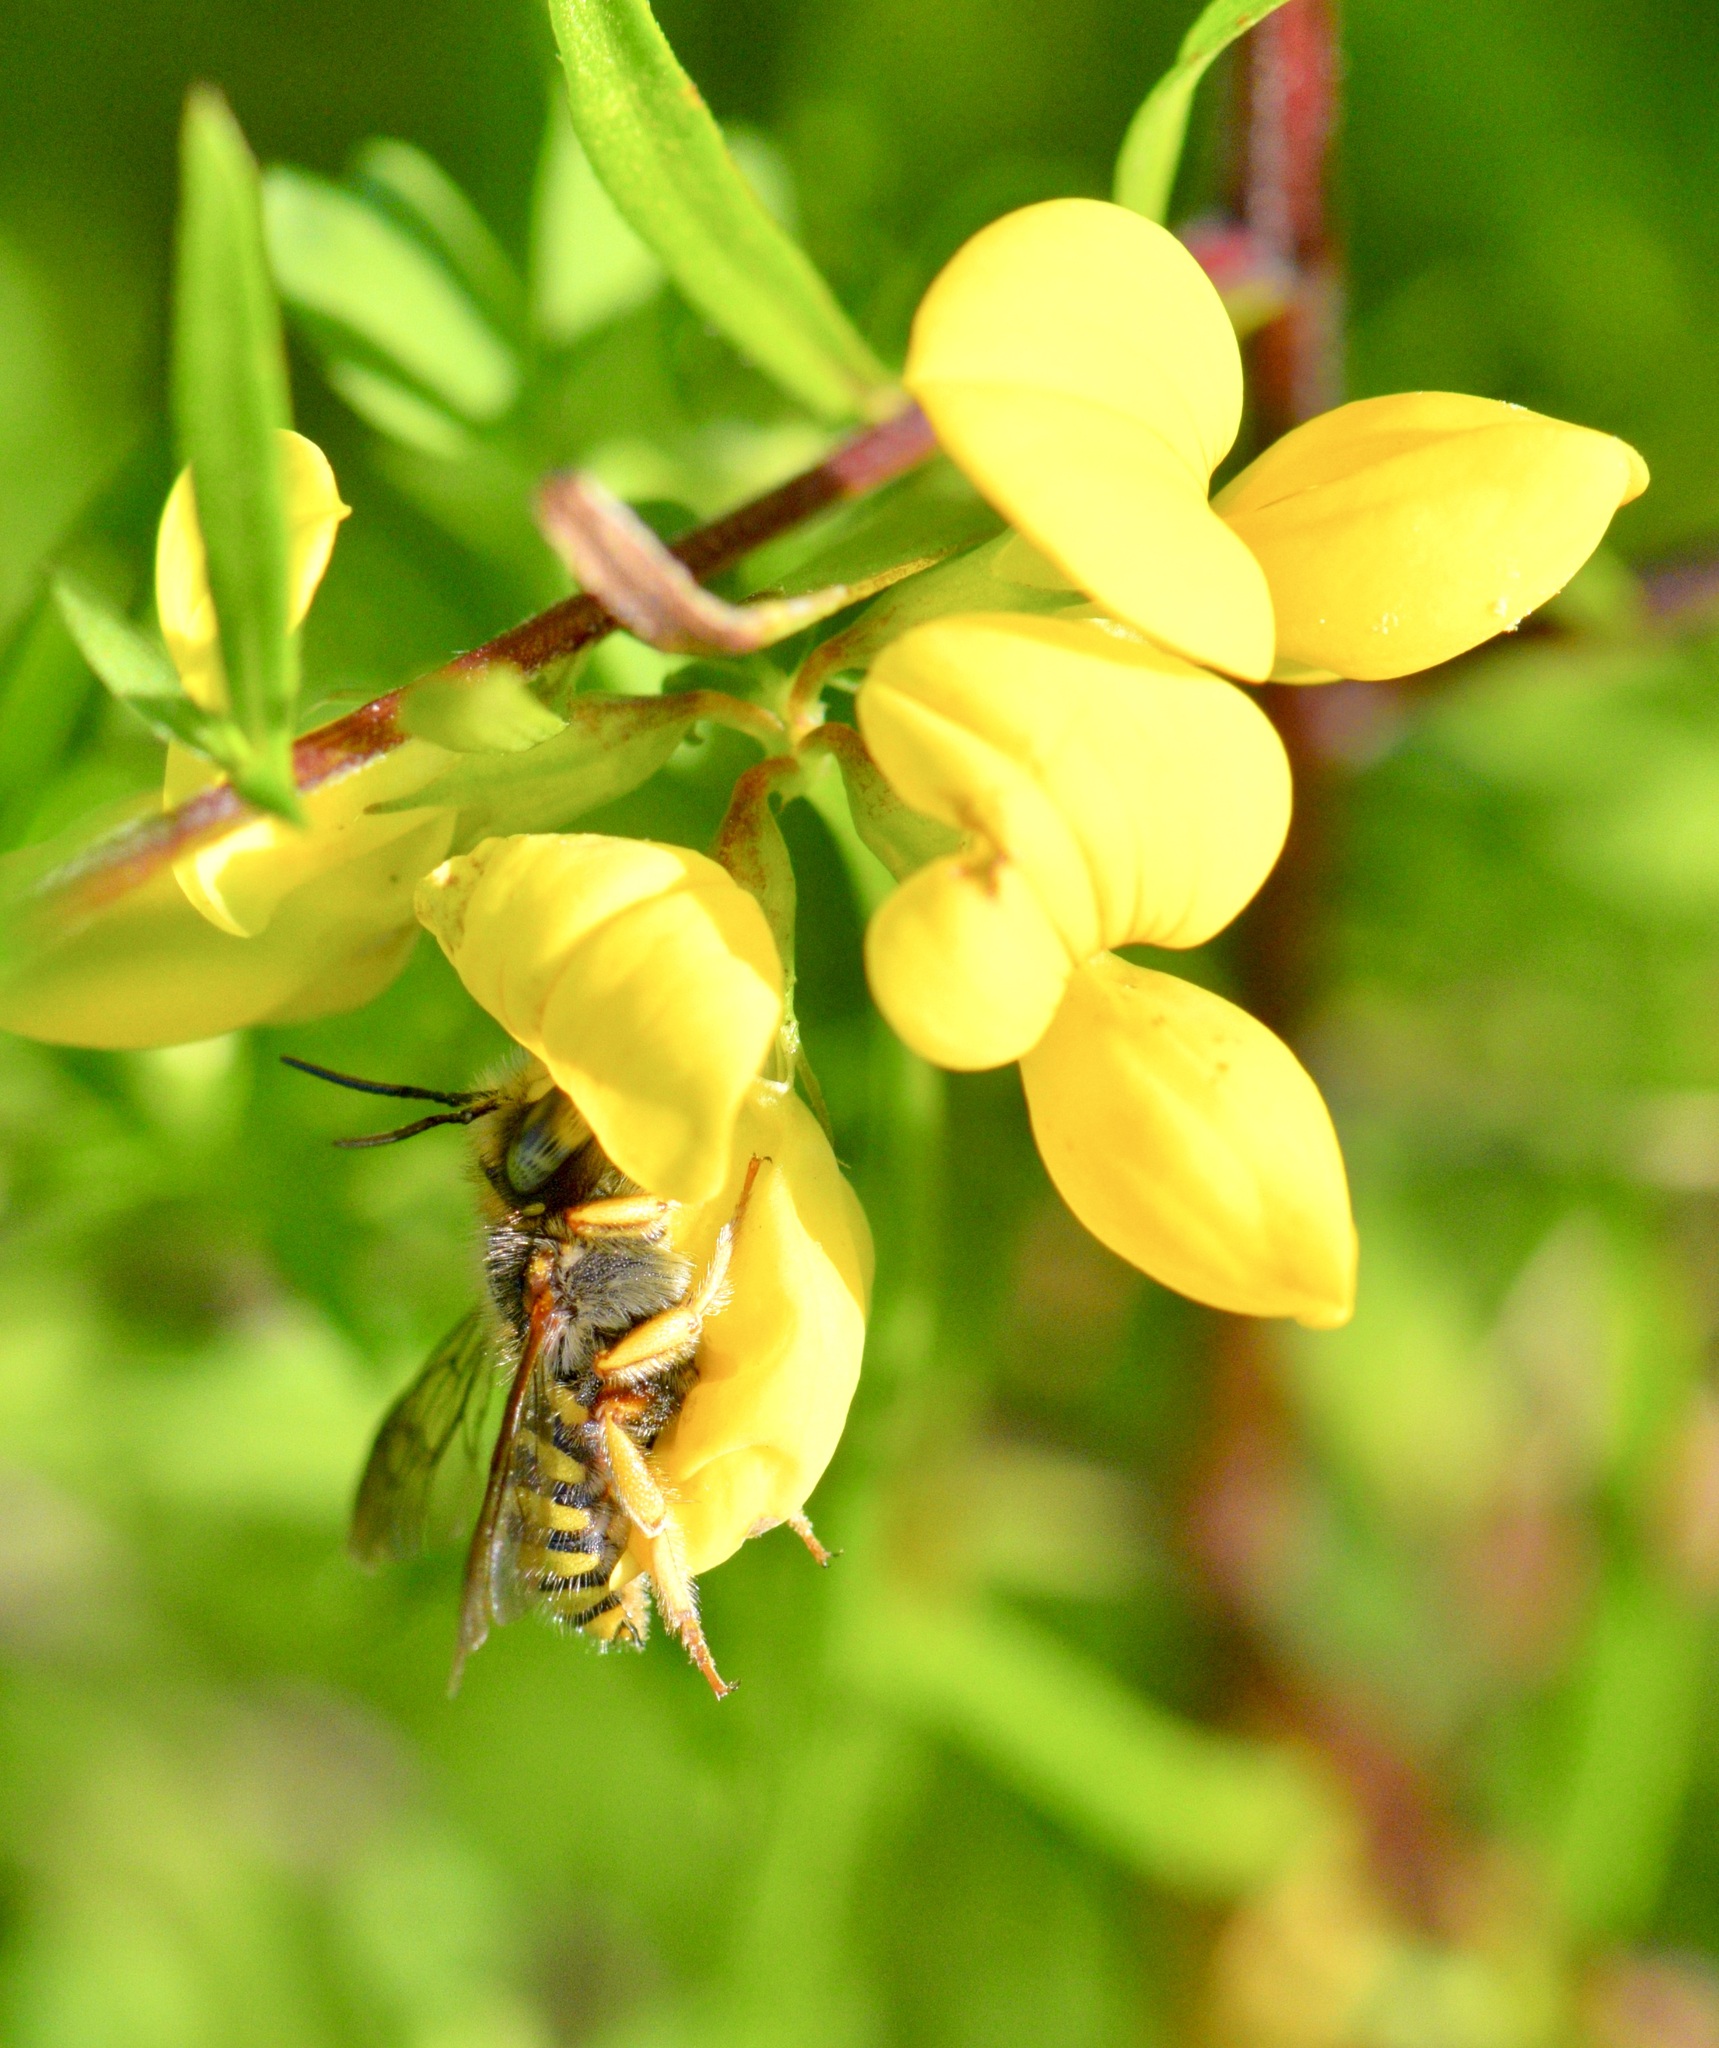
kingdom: Animalia
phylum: Arthropoda
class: Insecta
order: Hymenoptera
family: Megachilidae
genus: Anthidium
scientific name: Anthidium oblongatum
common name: Oblong wool carder bee
